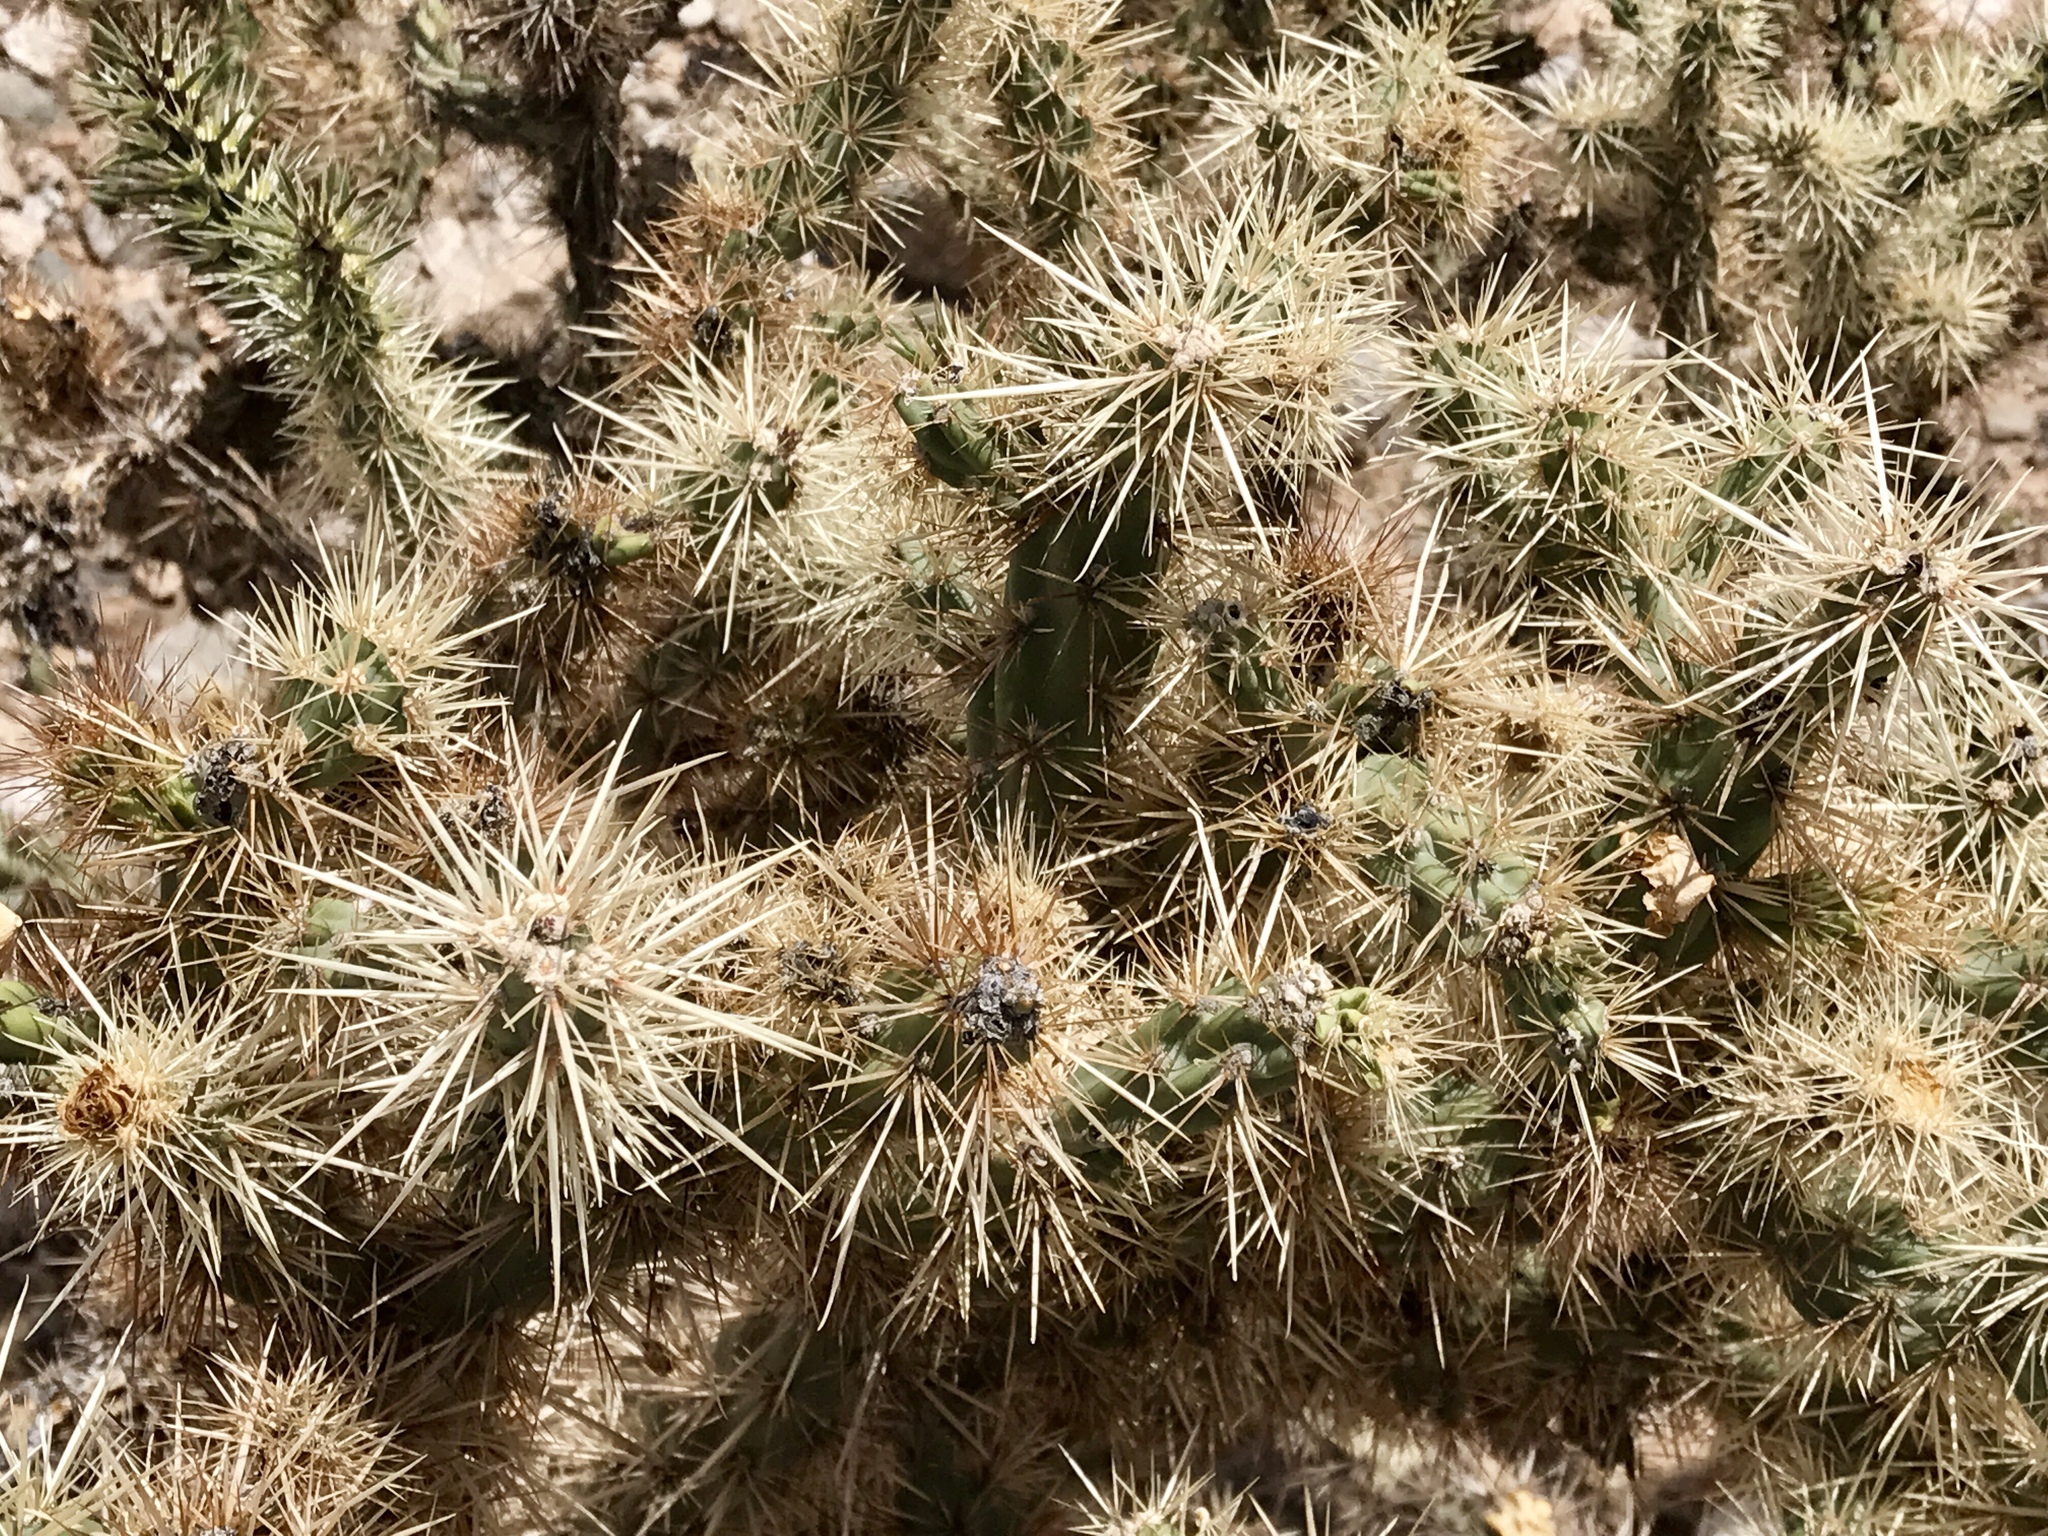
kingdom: Plantae
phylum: Tracheophyta
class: Magnoliopsida
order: Caryophyllales
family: Cactaceae
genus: Cylindropuntia
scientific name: Cylindropuntia acanthocarpa
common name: Buckhorn cholla
